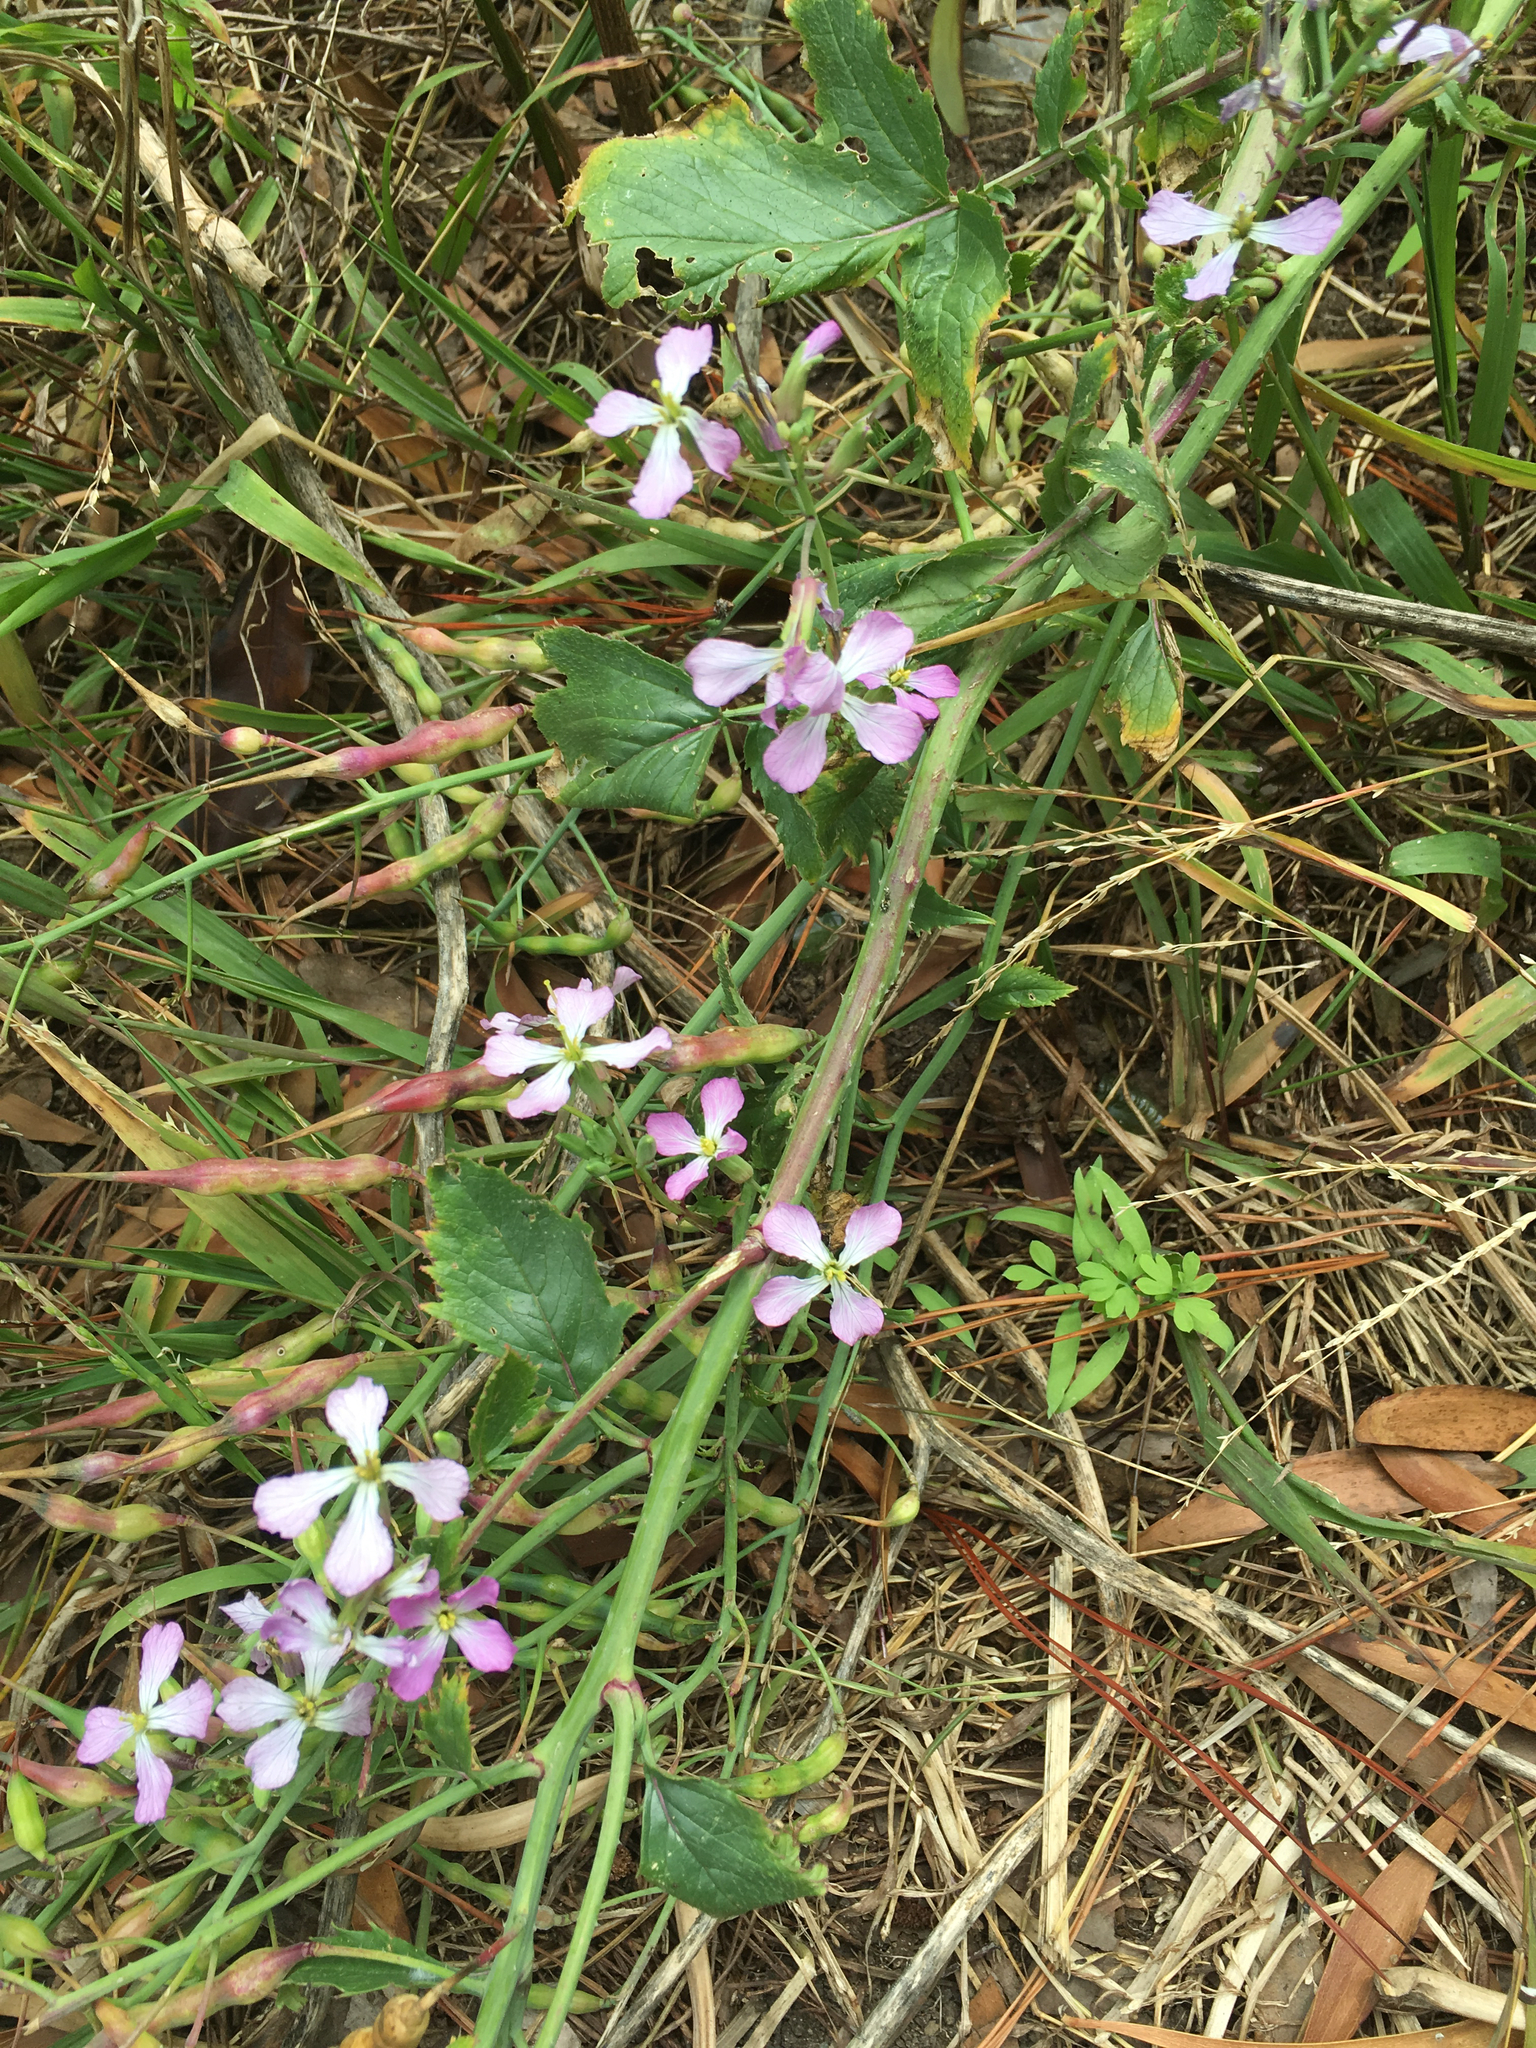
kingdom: Plantae
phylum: Tracheophyta
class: Magnoliopsida
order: Brassicales
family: Brassicaceae
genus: Raphanus
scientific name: Raphanus sativus
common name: Cultivated radish
